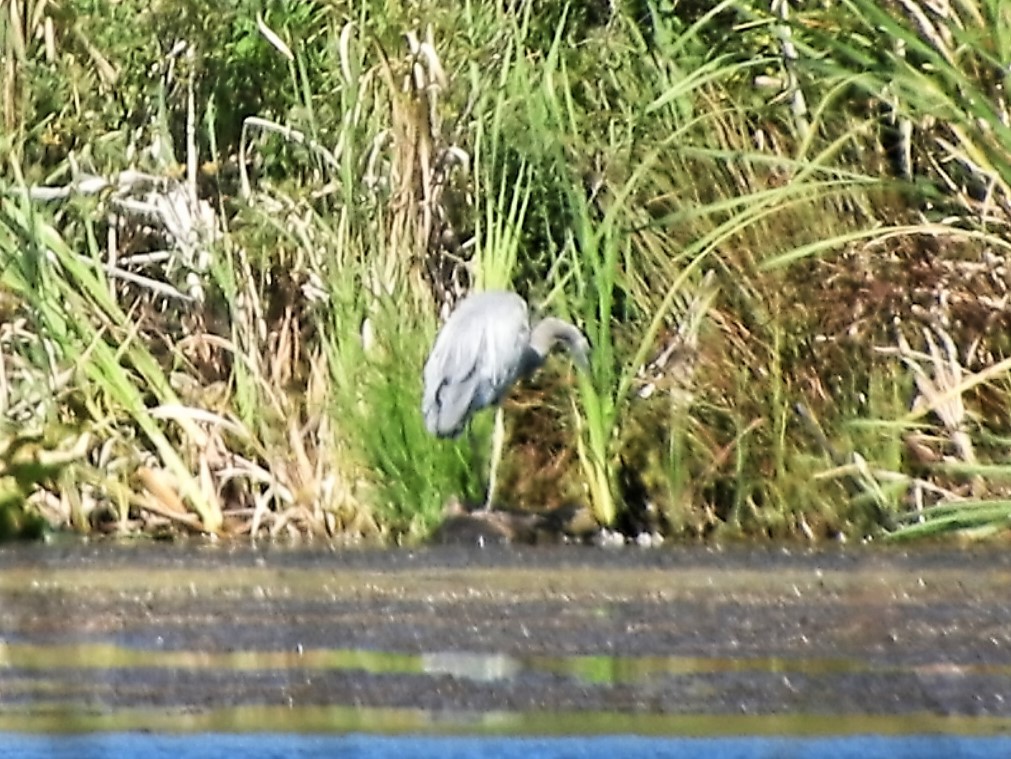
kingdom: Animalia
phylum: Chordata
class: Aves
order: Pelecaniformes
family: Ardeidae
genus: Ardea
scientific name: Ardea herodias
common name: Great blue heron
